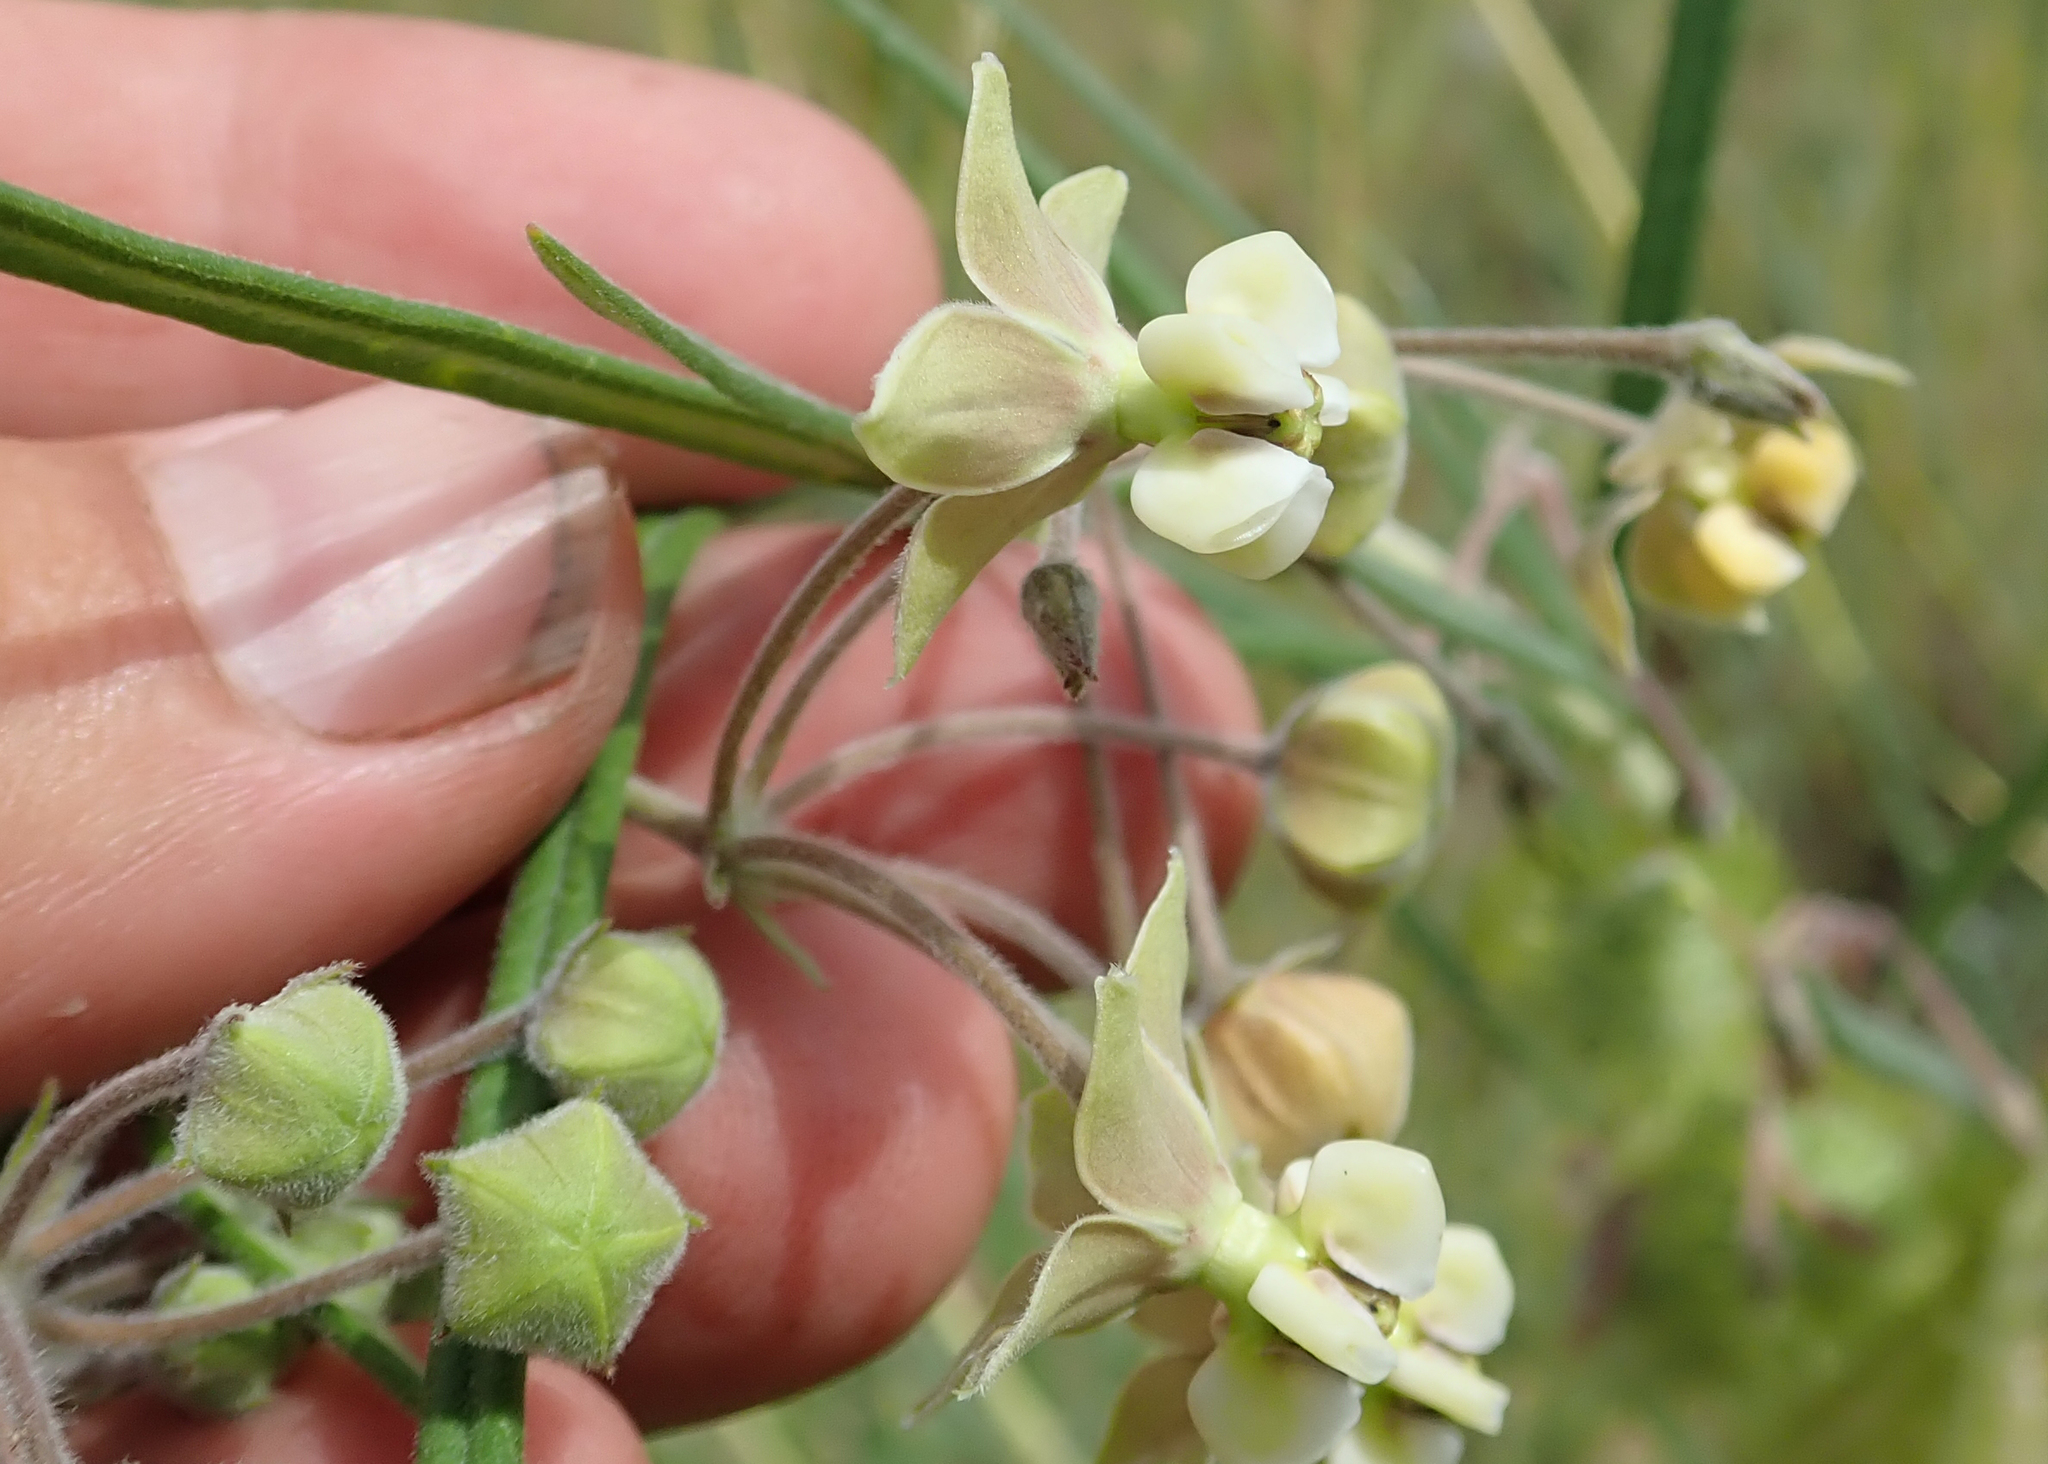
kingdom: Plantae
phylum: Tracheophyta
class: Magnoliopsida
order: Gentianales
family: Apocynaceae
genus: Gomphocarpus
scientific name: Gomphocarpus fruticosus
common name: Milkweed
